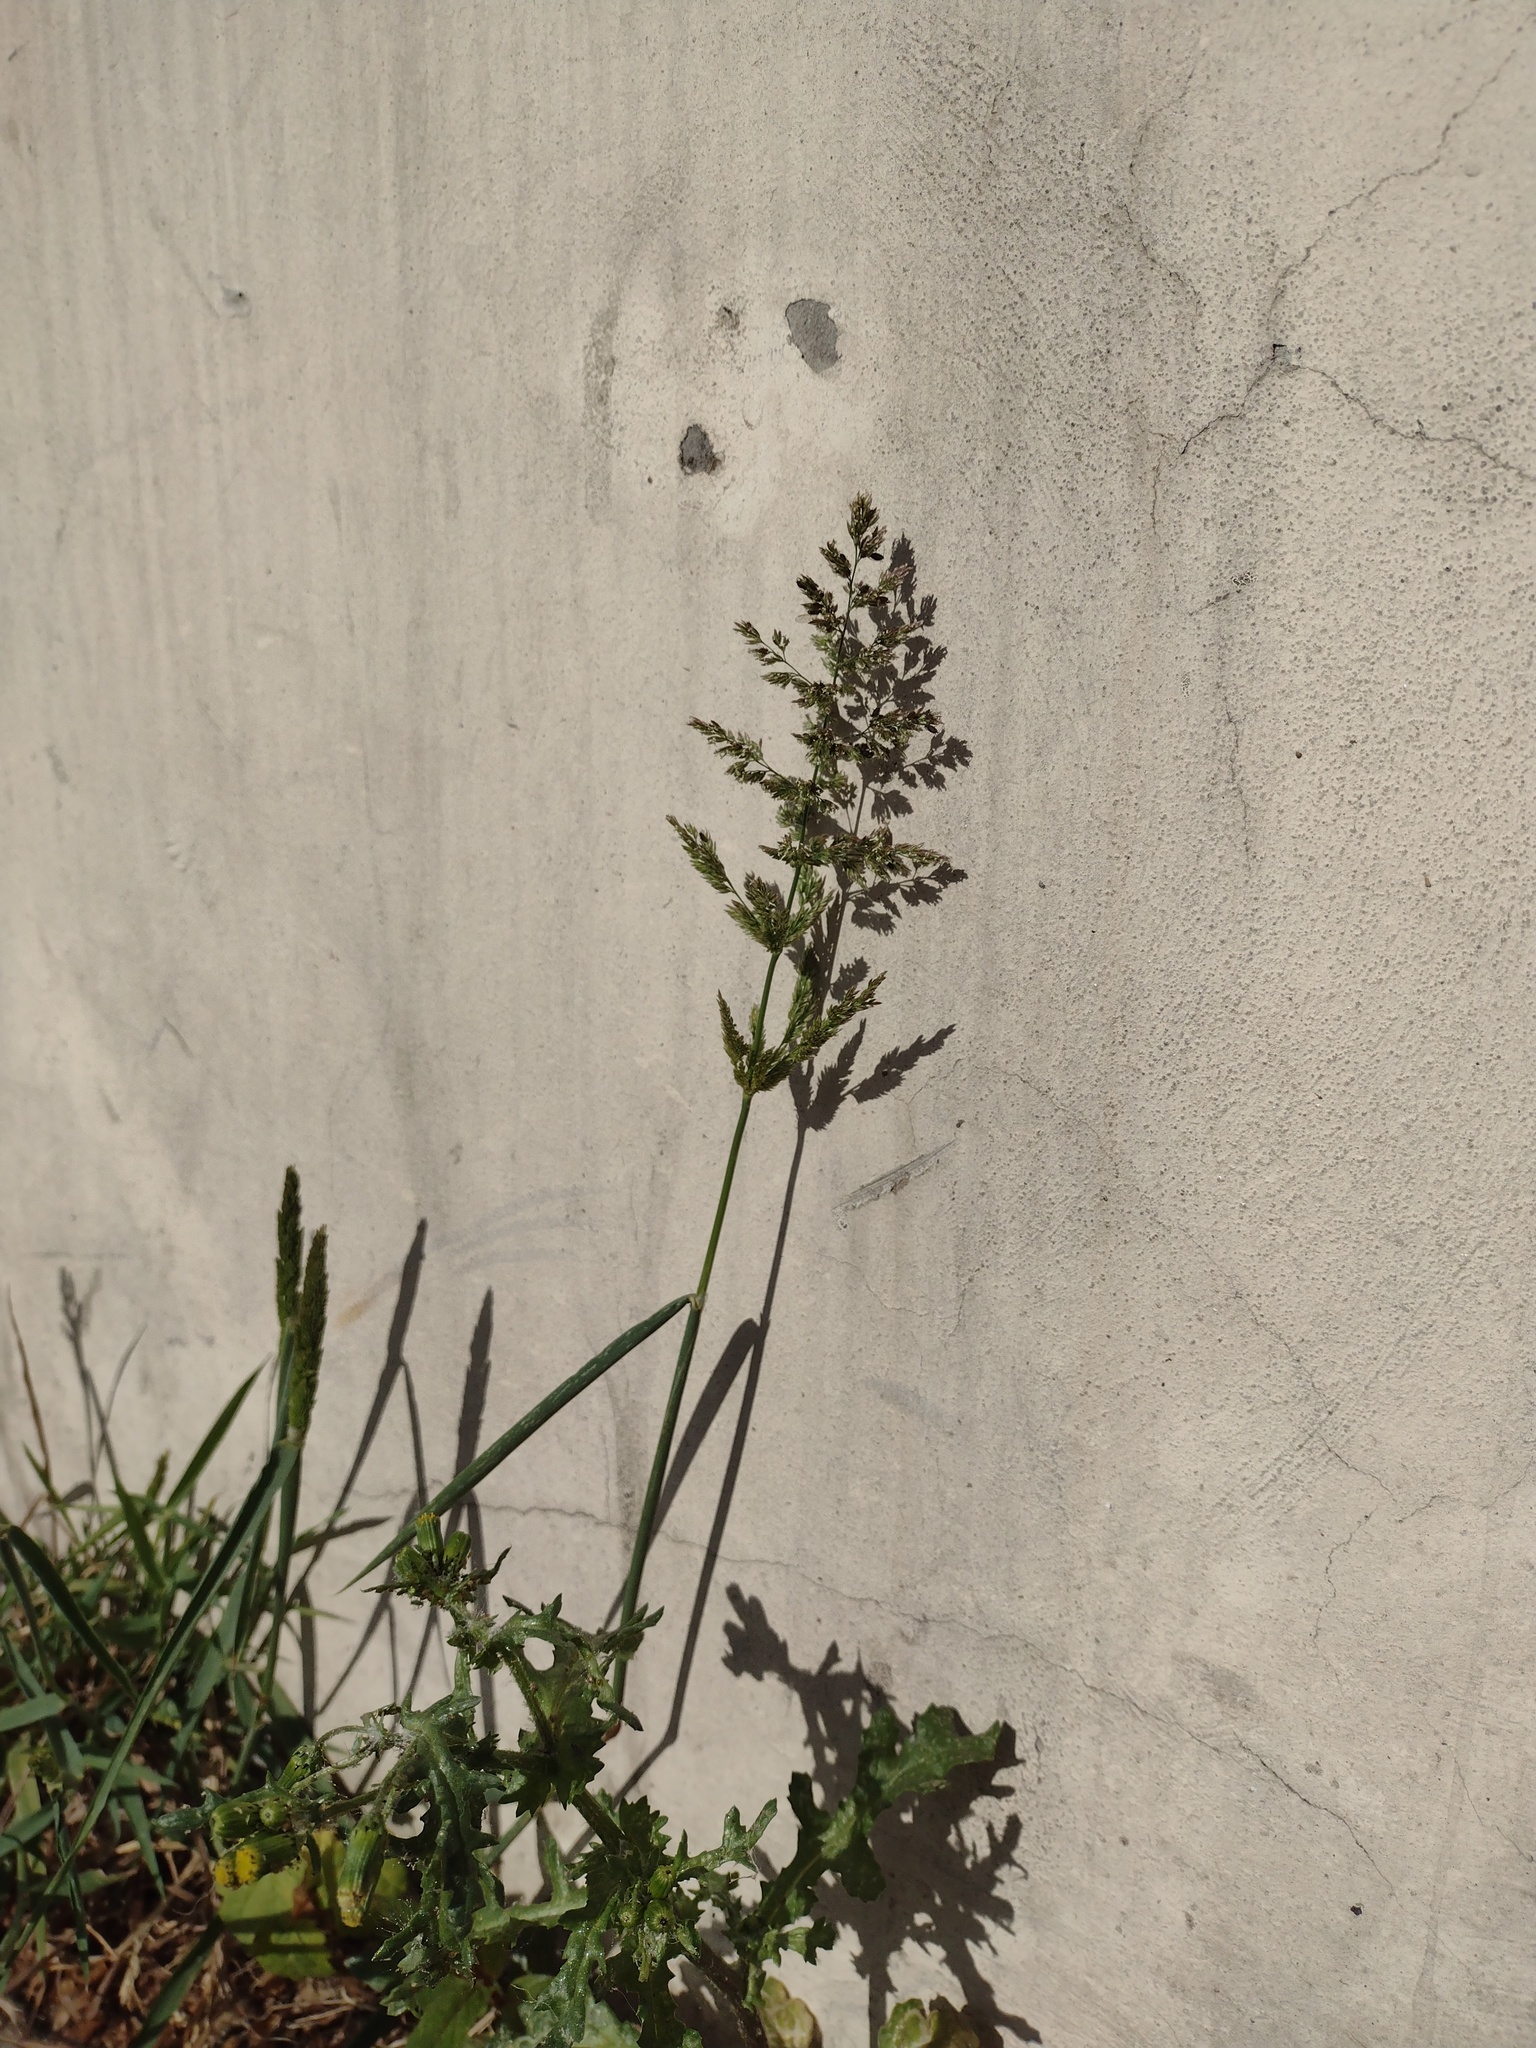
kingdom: Plantae
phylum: Tracheophyta
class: Liliopsida
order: Poales
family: Poaceae
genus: Polypogon
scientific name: Polypogon viridis
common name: Water bent
